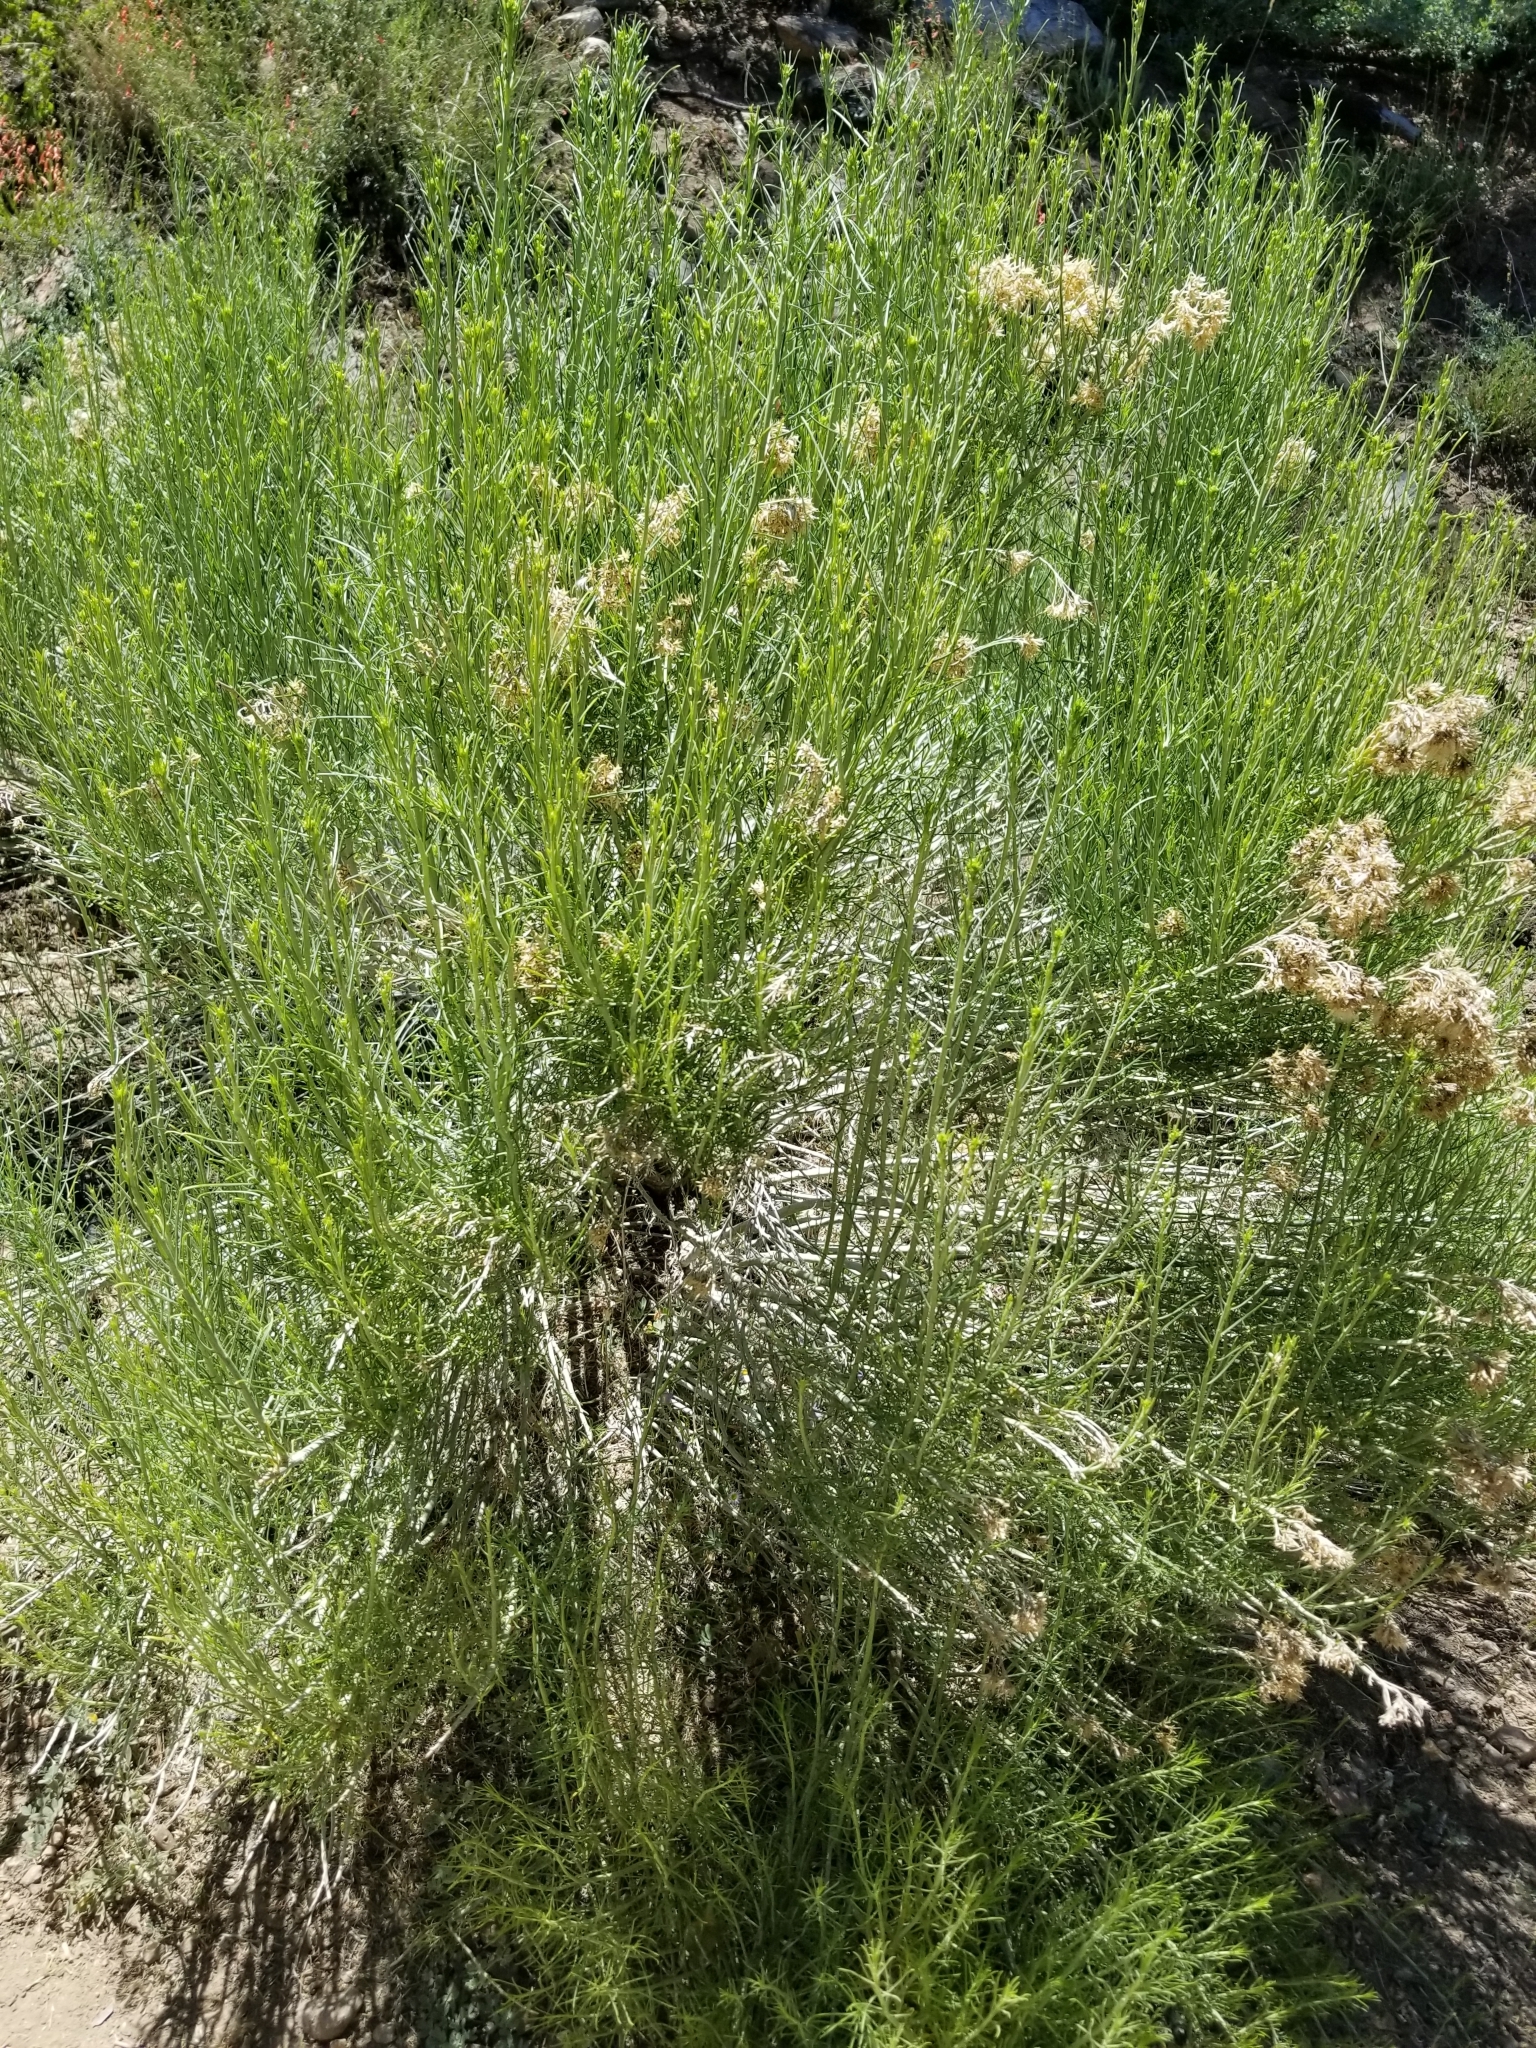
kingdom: Plantae
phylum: Tracheophyta
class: Magnoliopsida
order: Asterales
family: Asteraceae
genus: Ericameria
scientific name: Ericameria nauseosa
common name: Rubber rabbitbrush
